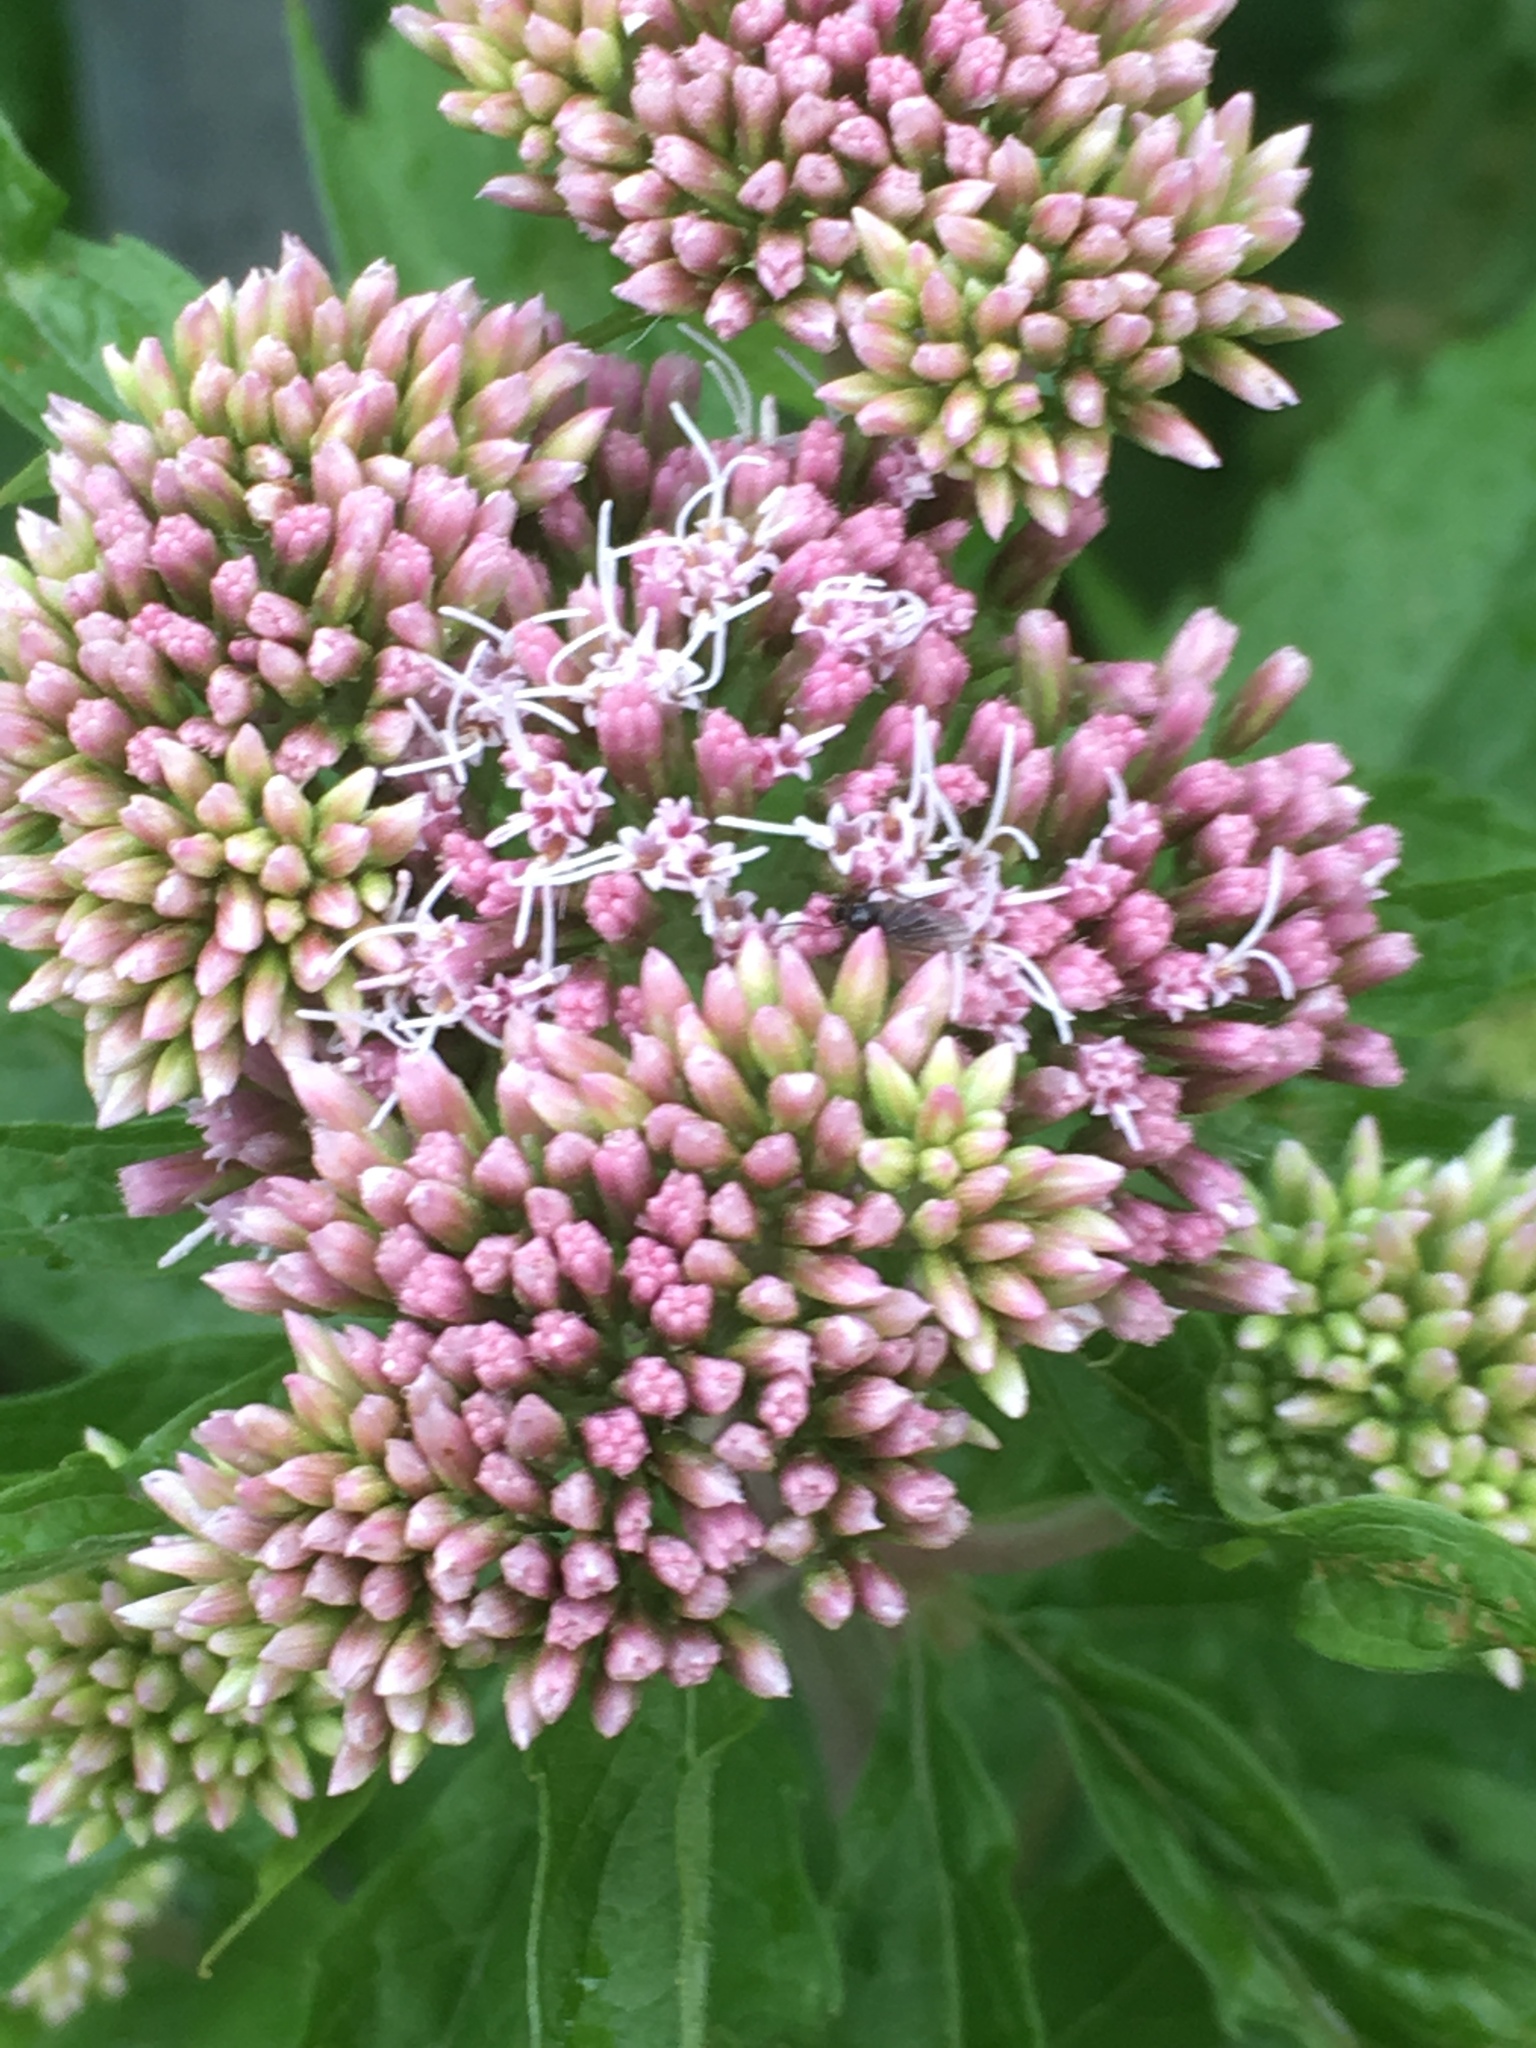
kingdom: Plantae
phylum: Tracheophyta
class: Magnoliopsida
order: Asterales
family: Asteraceae
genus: Eupatorium
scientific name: Eupatorium cannabinum
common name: Hemp-agrimony
